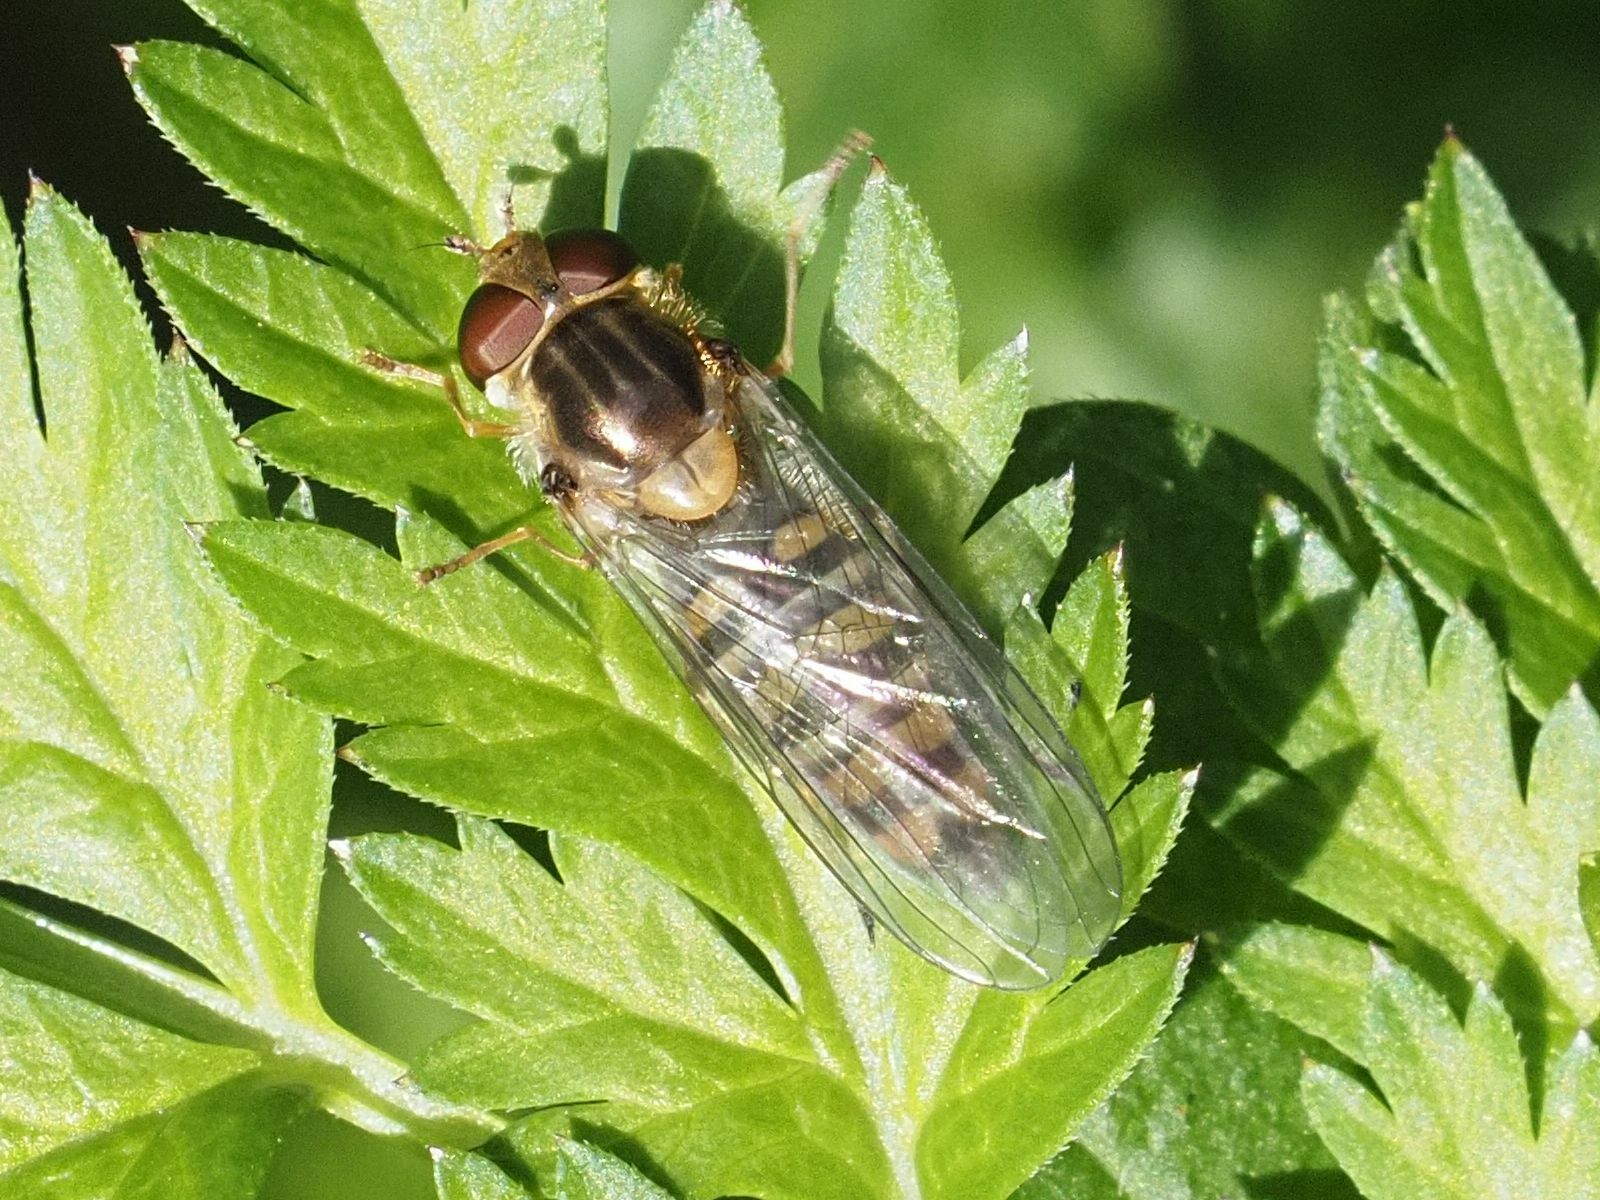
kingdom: Animalia
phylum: Arthropoda
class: Insecta
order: Diptera
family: Syrphidae
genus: Episyrphus
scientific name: Episyrphus balteatus
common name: Marmalade hoverfly
